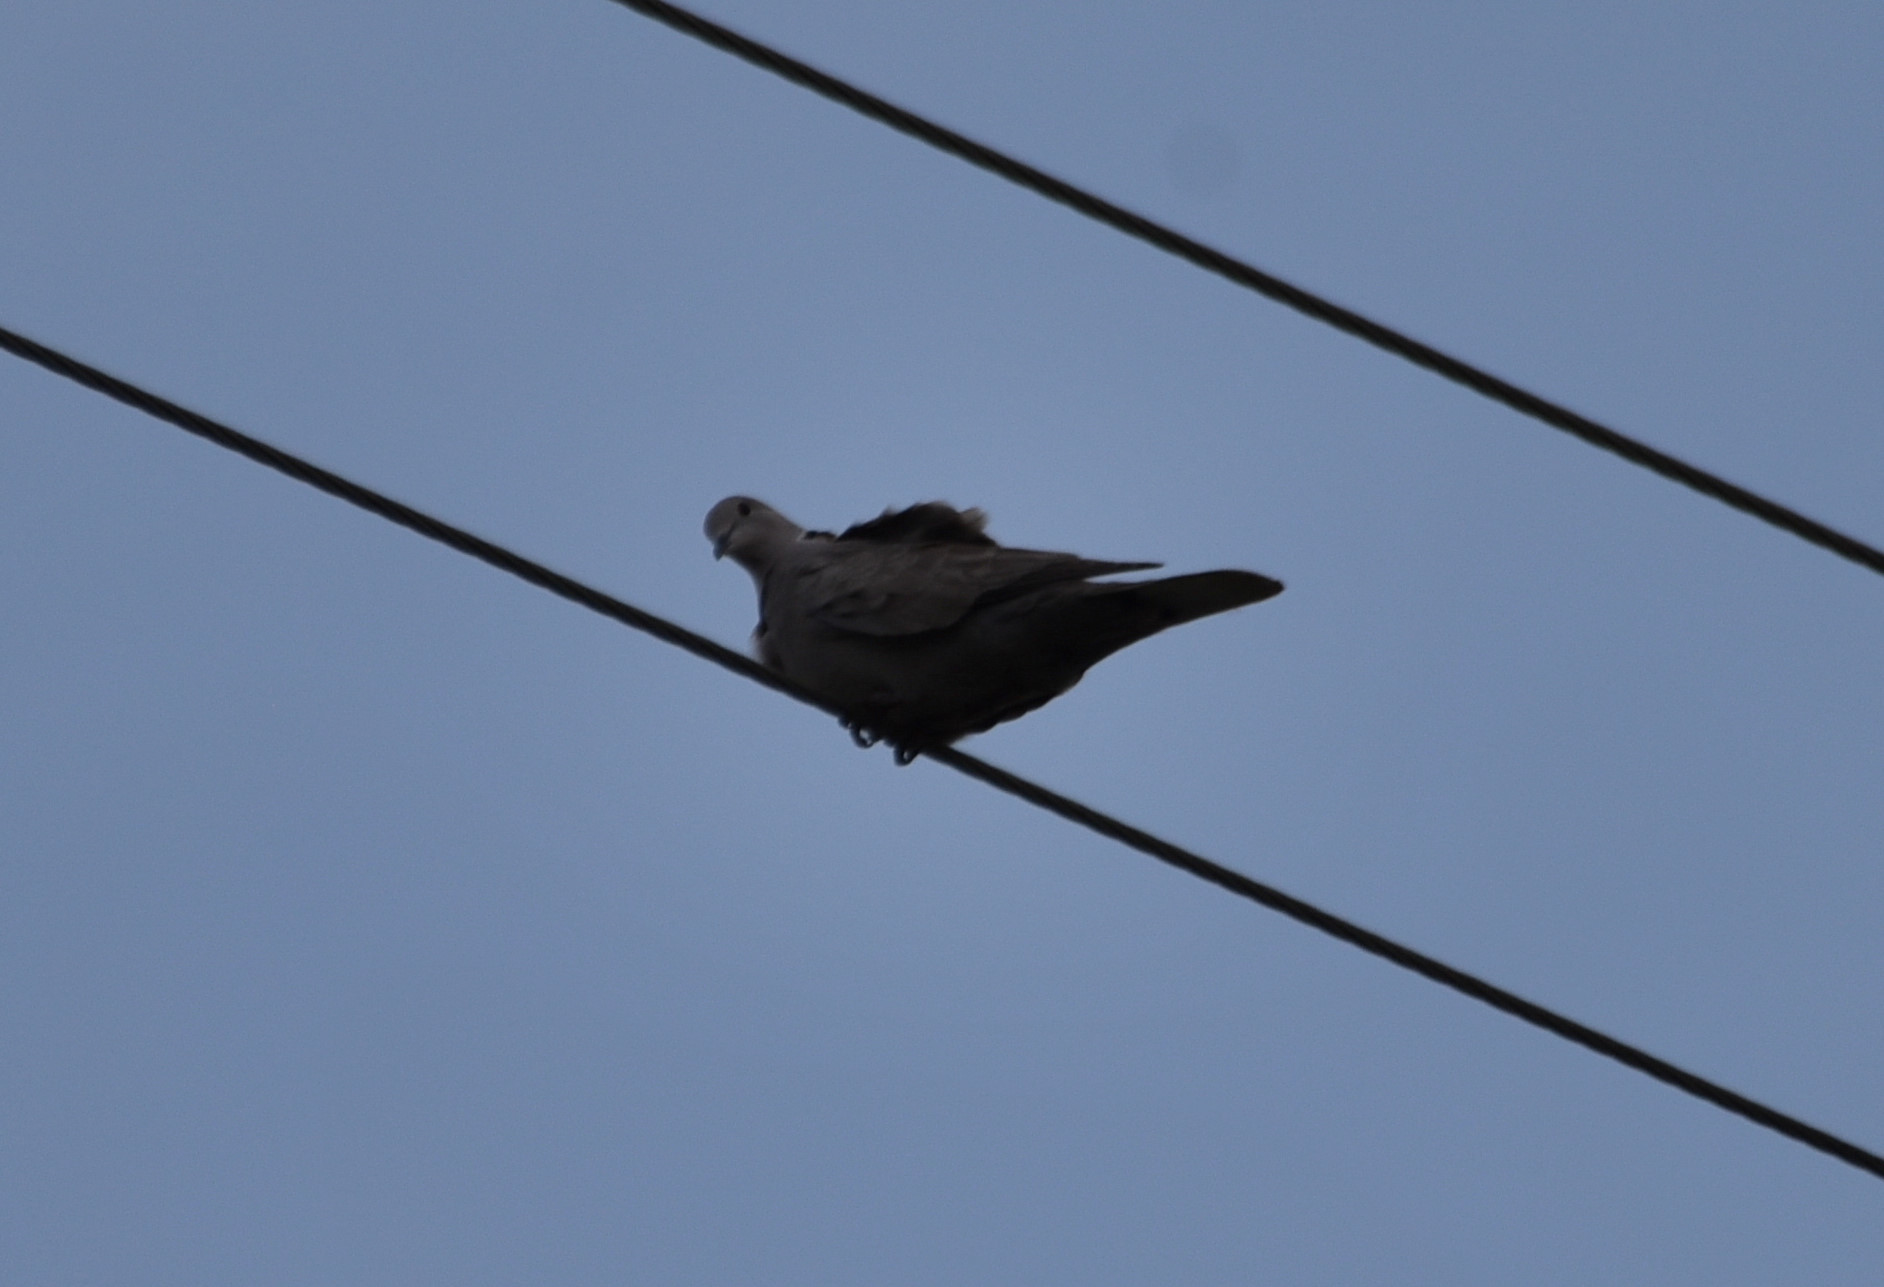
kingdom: Animalia
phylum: Chordata
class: Aves
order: Columbiformes
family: Columbidae
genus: Streptopelia
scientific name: Streptopelia decaocto
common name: Eurasian collared dove
